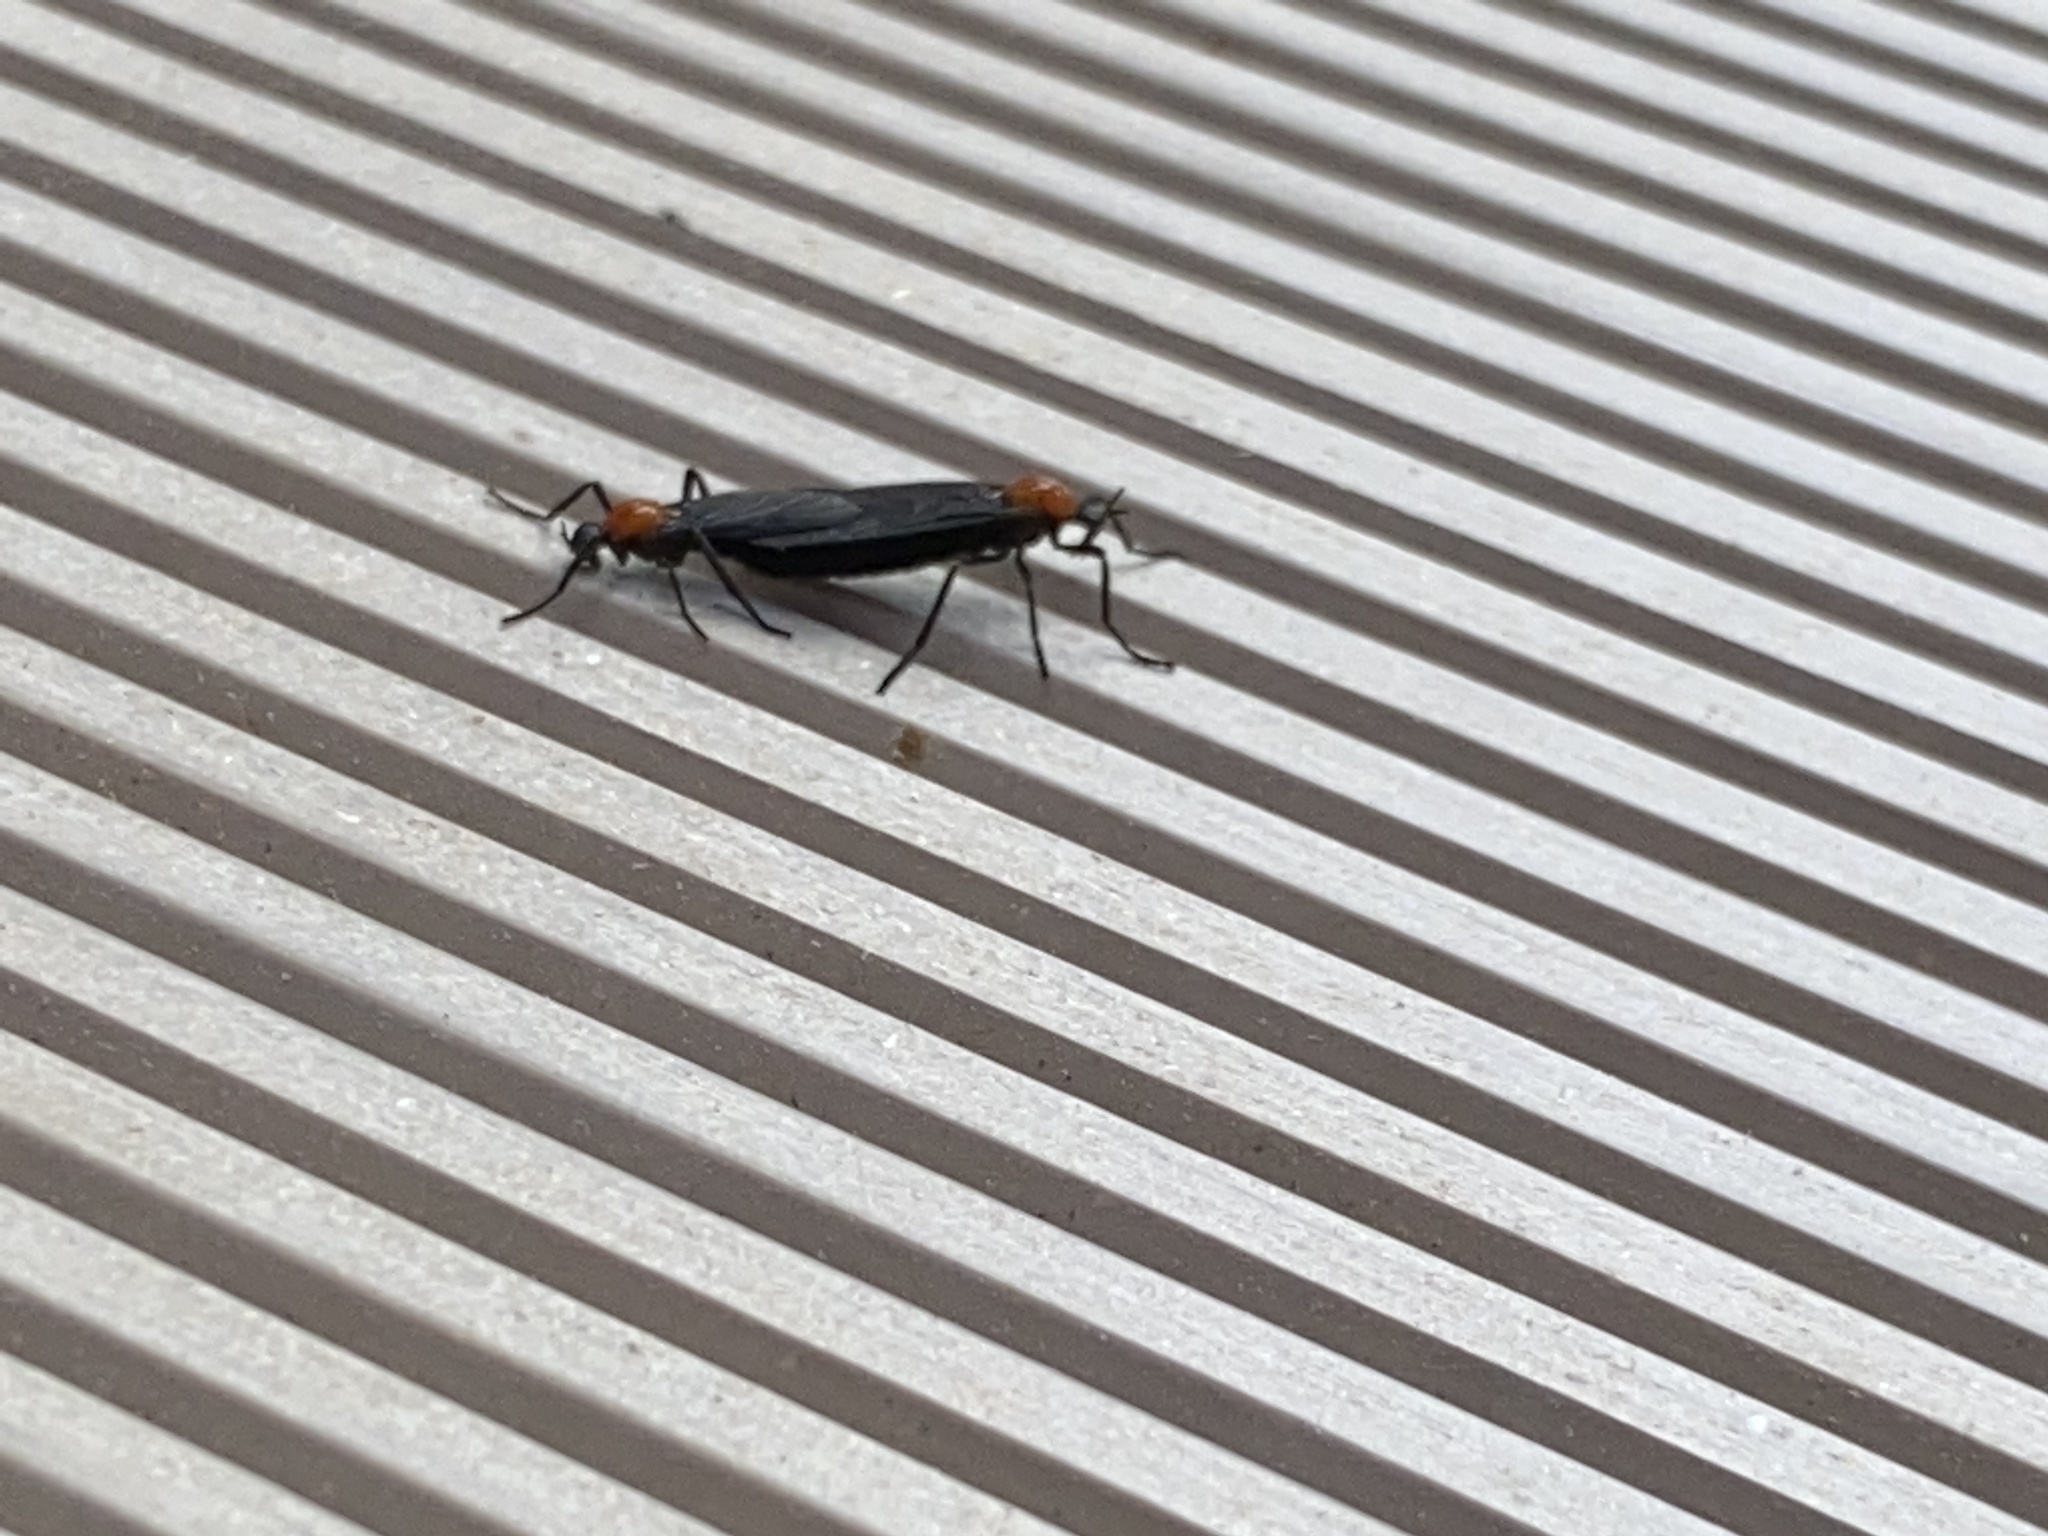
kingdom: Animalia
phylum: Arthropoda
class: Insecta
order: Diptera
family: Bibionidae
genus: Plecia
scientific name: Plecia nearctica
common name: March fly
